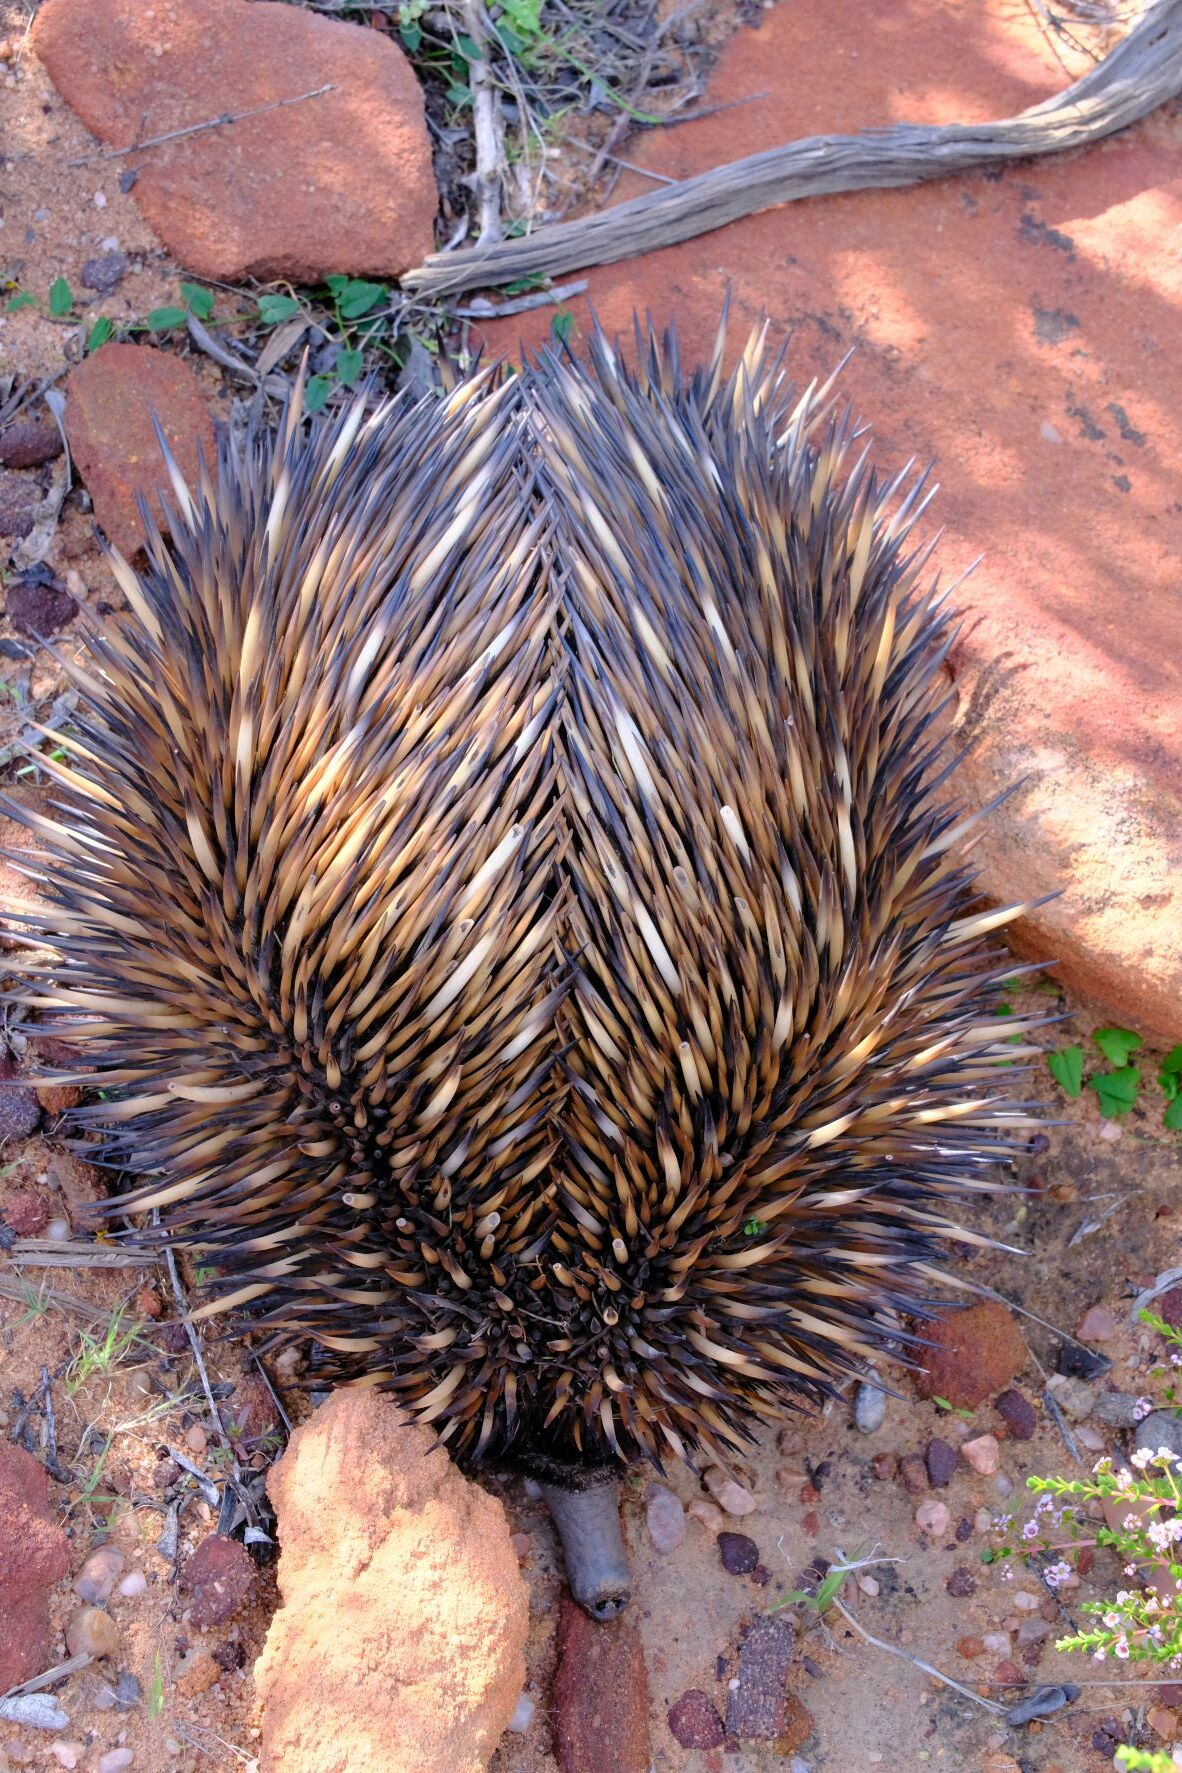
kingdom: Animalia
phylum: Chordata
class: Mammalia
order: Monotremata
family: Tachyglossidae
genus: Tachyglossus
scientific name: Tachyglossus aculeatus
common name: Short-beaked echidna
